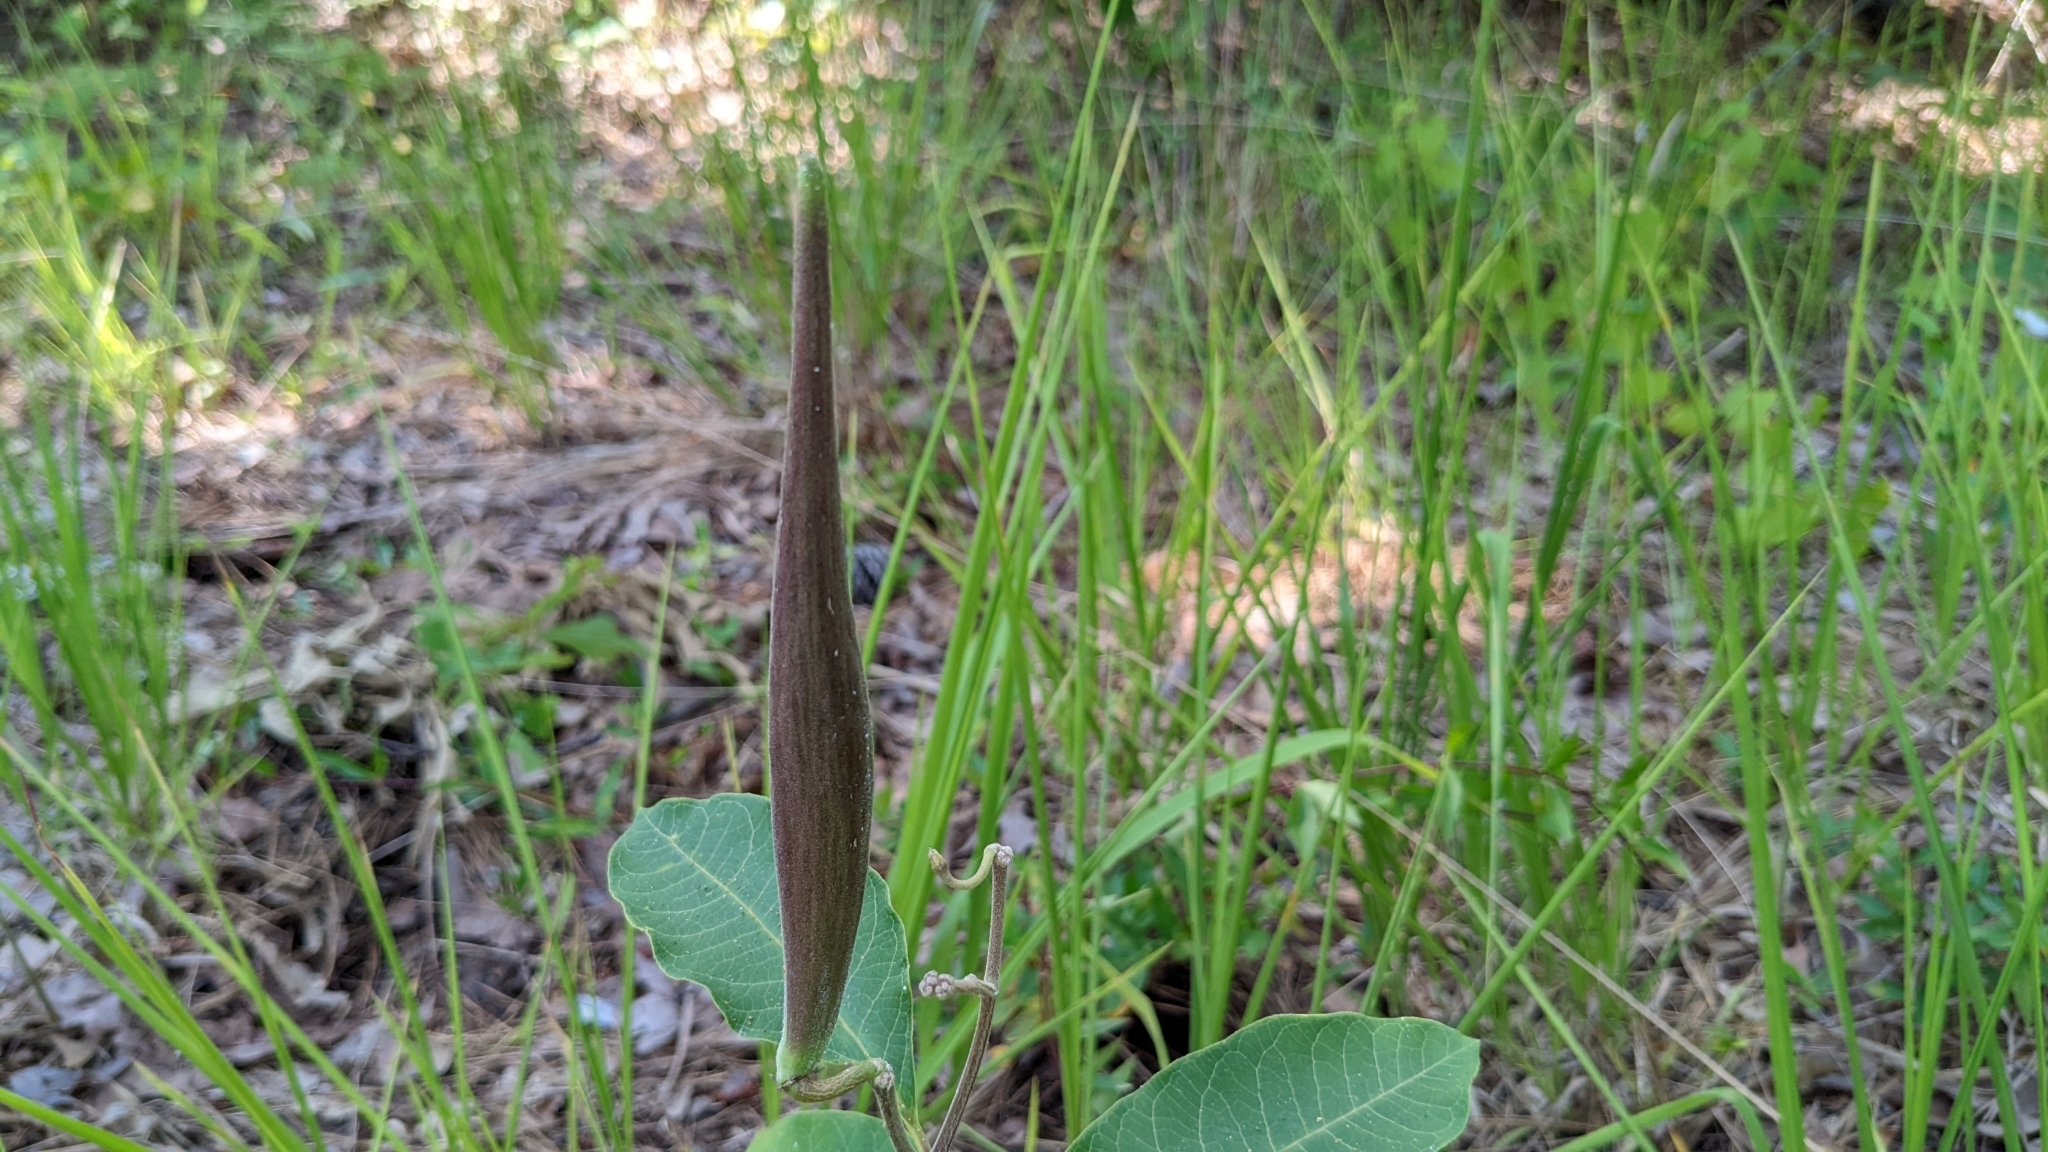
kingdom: Plantae
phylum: Tracheophyta
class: Magnoliopsida
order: Gentianales
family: Apocynaceae
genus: Asclepias
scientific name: Asclepias variegata
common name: Variegated milkweed
